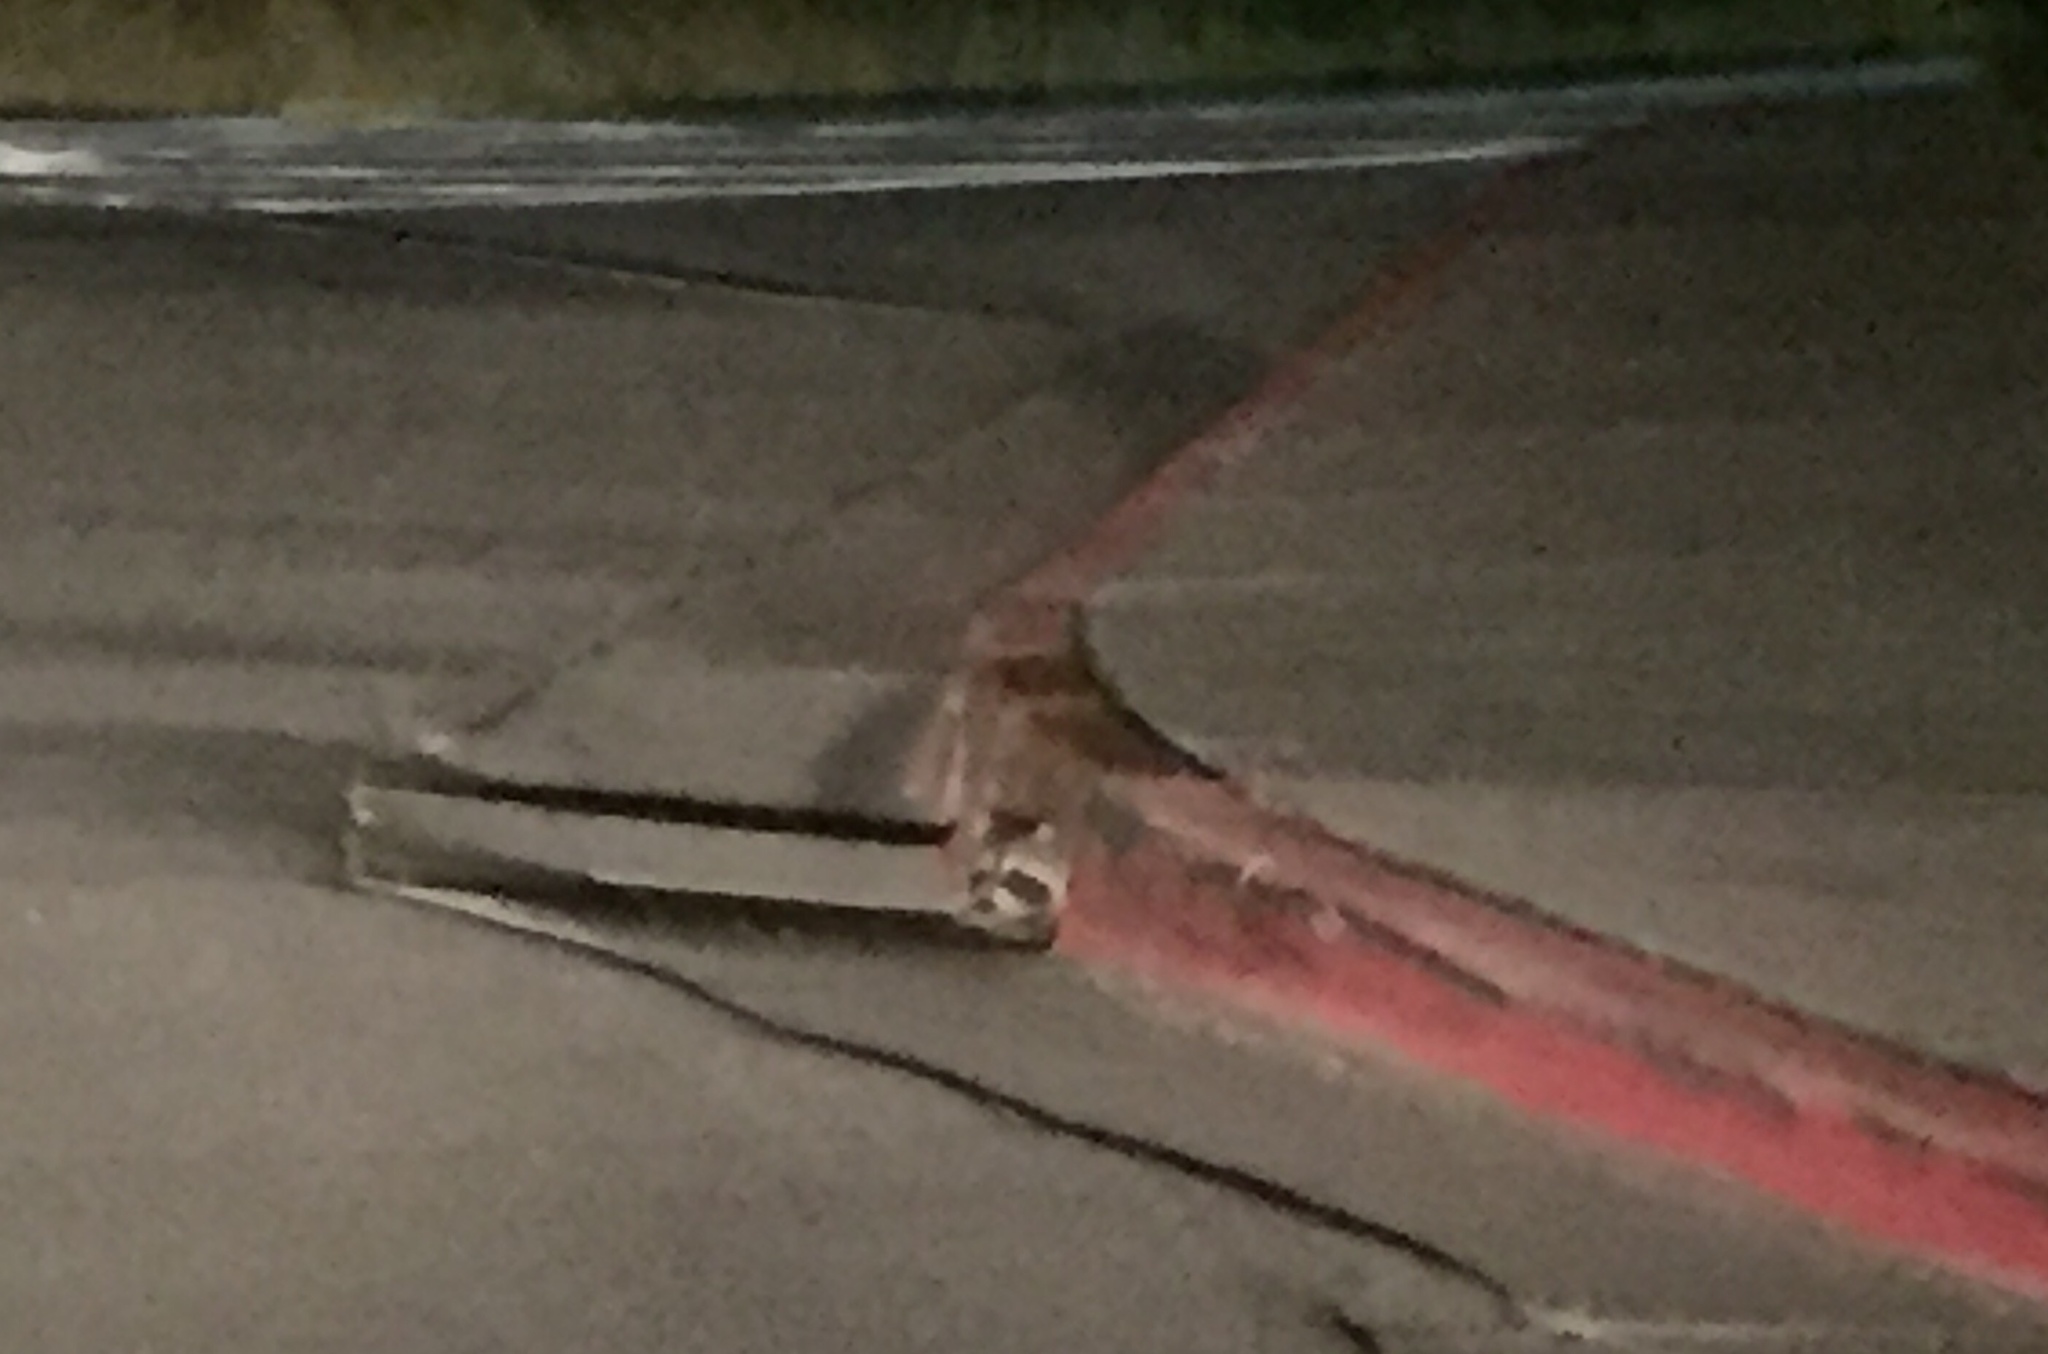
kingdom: Animalia
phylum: Chordata
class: Mammalia
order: Carnivora
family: Procyonidae
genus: Procyon
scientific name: Procyon lotor
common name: Raccoon
